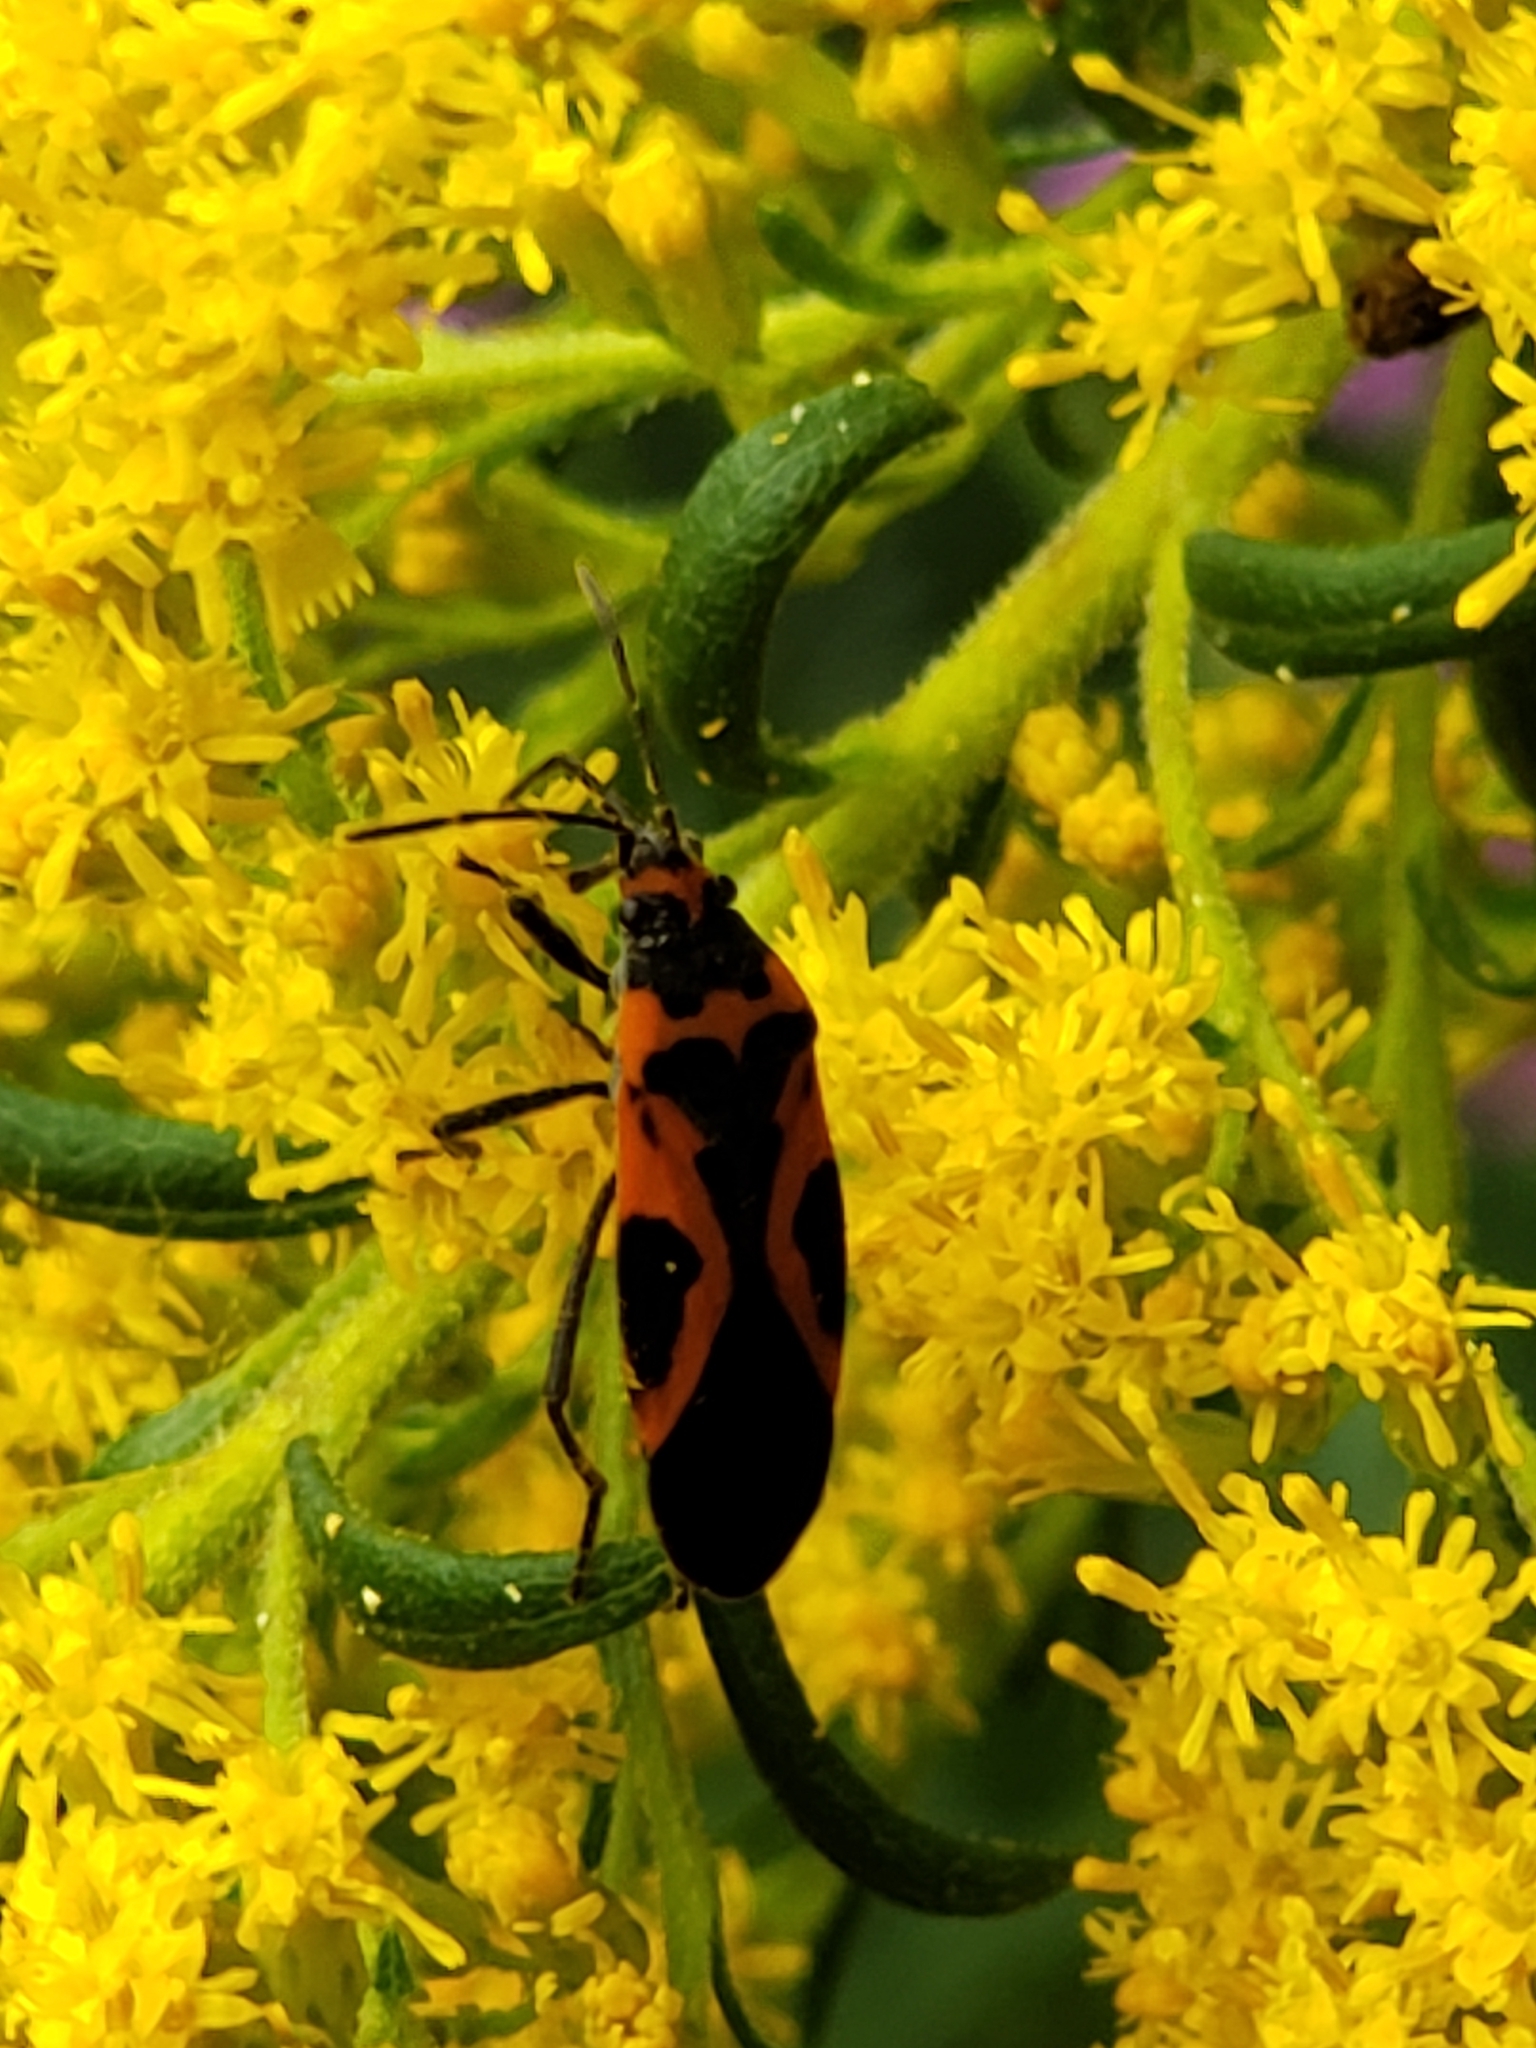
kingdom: Animalia
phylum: Arthropoda
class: Insecta
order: Hemiptera
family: Lygaeidae
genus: Lygaeus
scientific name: Lygaeus turcicus
